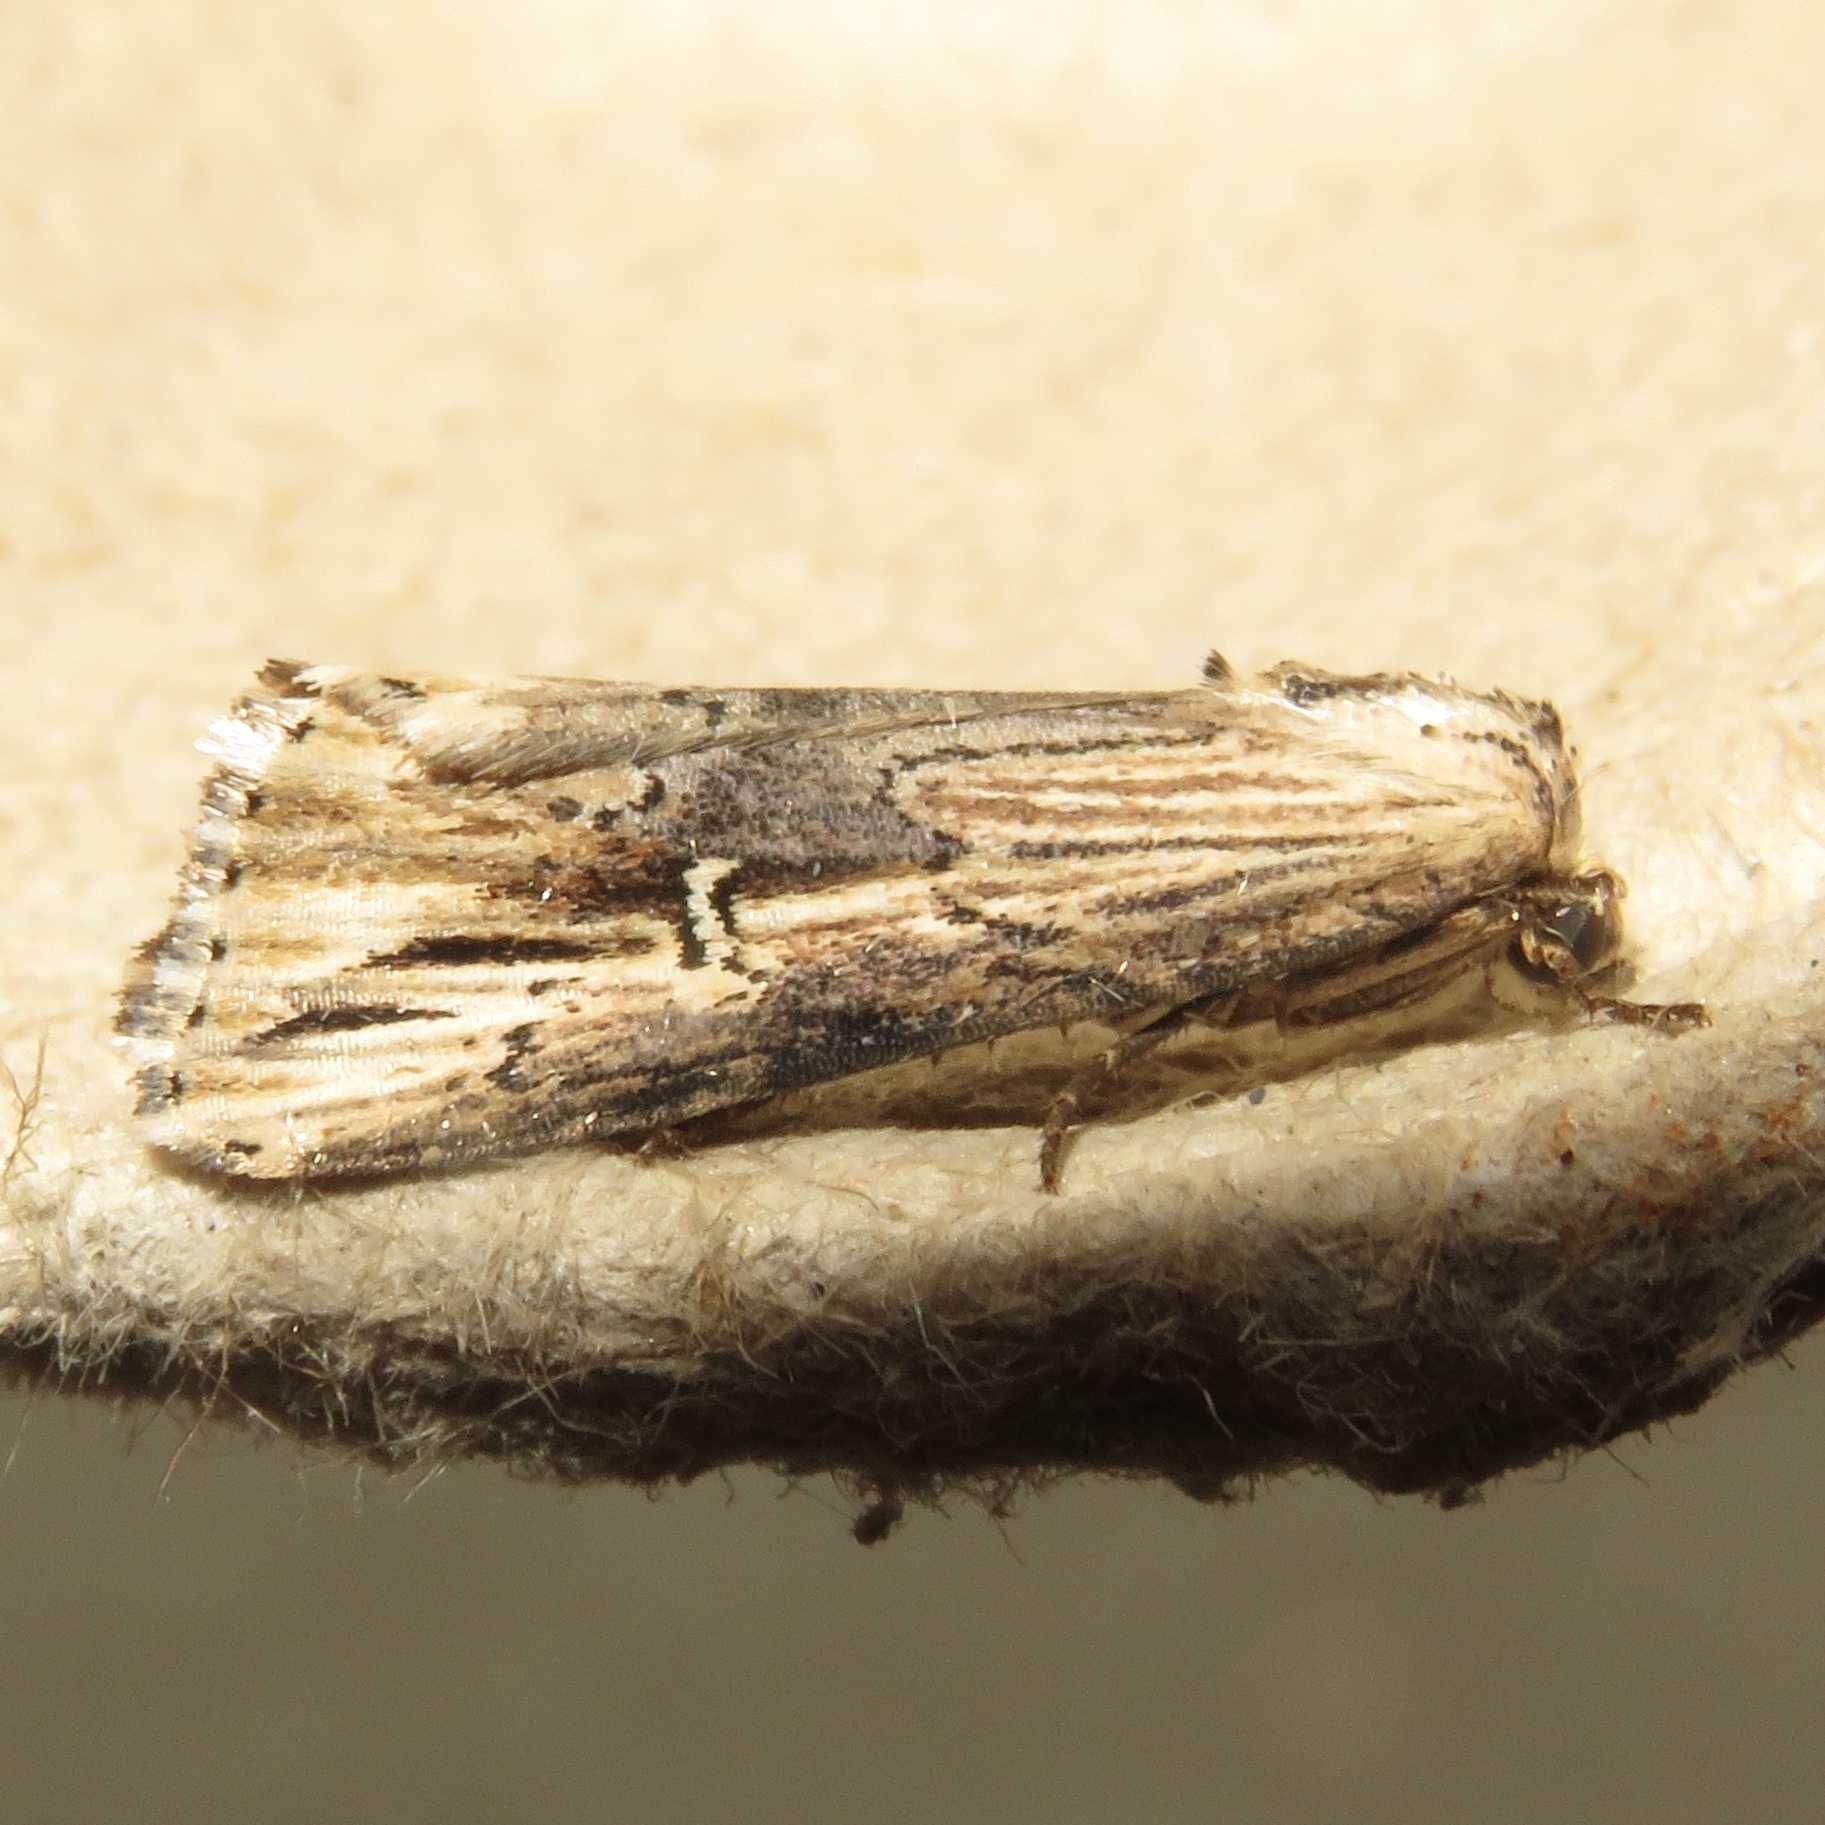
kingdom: Animalia
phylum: Arthropoda
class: Insecta
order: Lepidoptera
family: Noctuidae
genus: Crambodes
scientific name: Crambodes talidiformis
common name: Verbena moth
